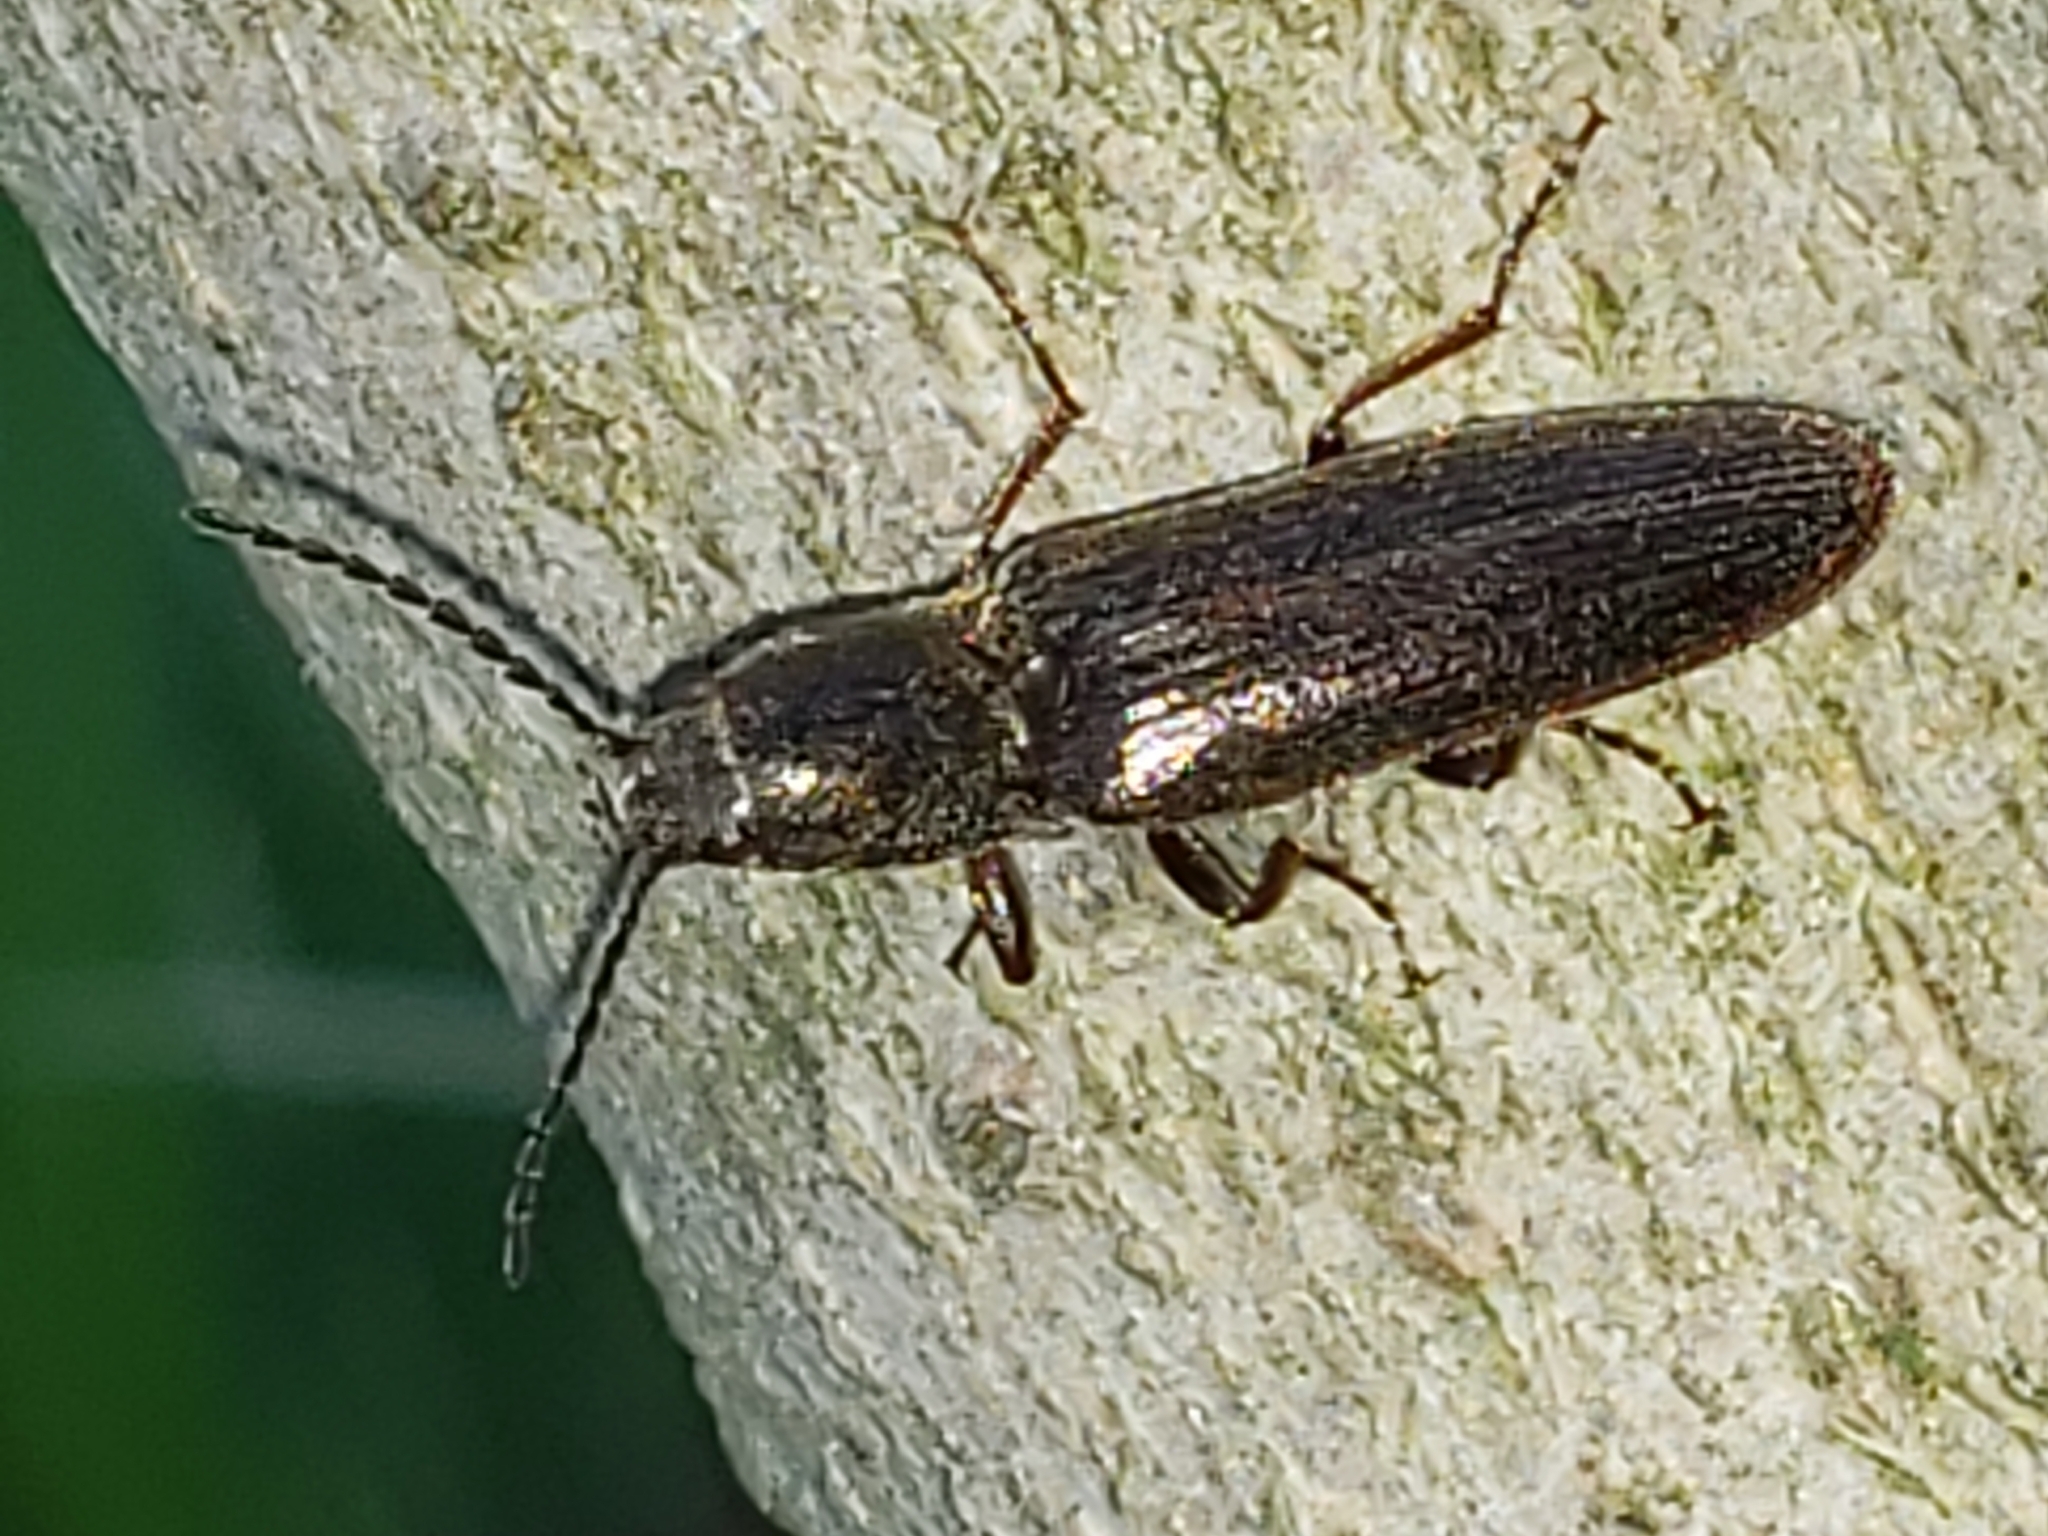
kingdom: Animalia
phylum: Arthropoda
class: Insecta
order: Coleoptera
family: Elateridae
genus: Sylvanelater
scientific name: Sylvanelater cylindriformis
